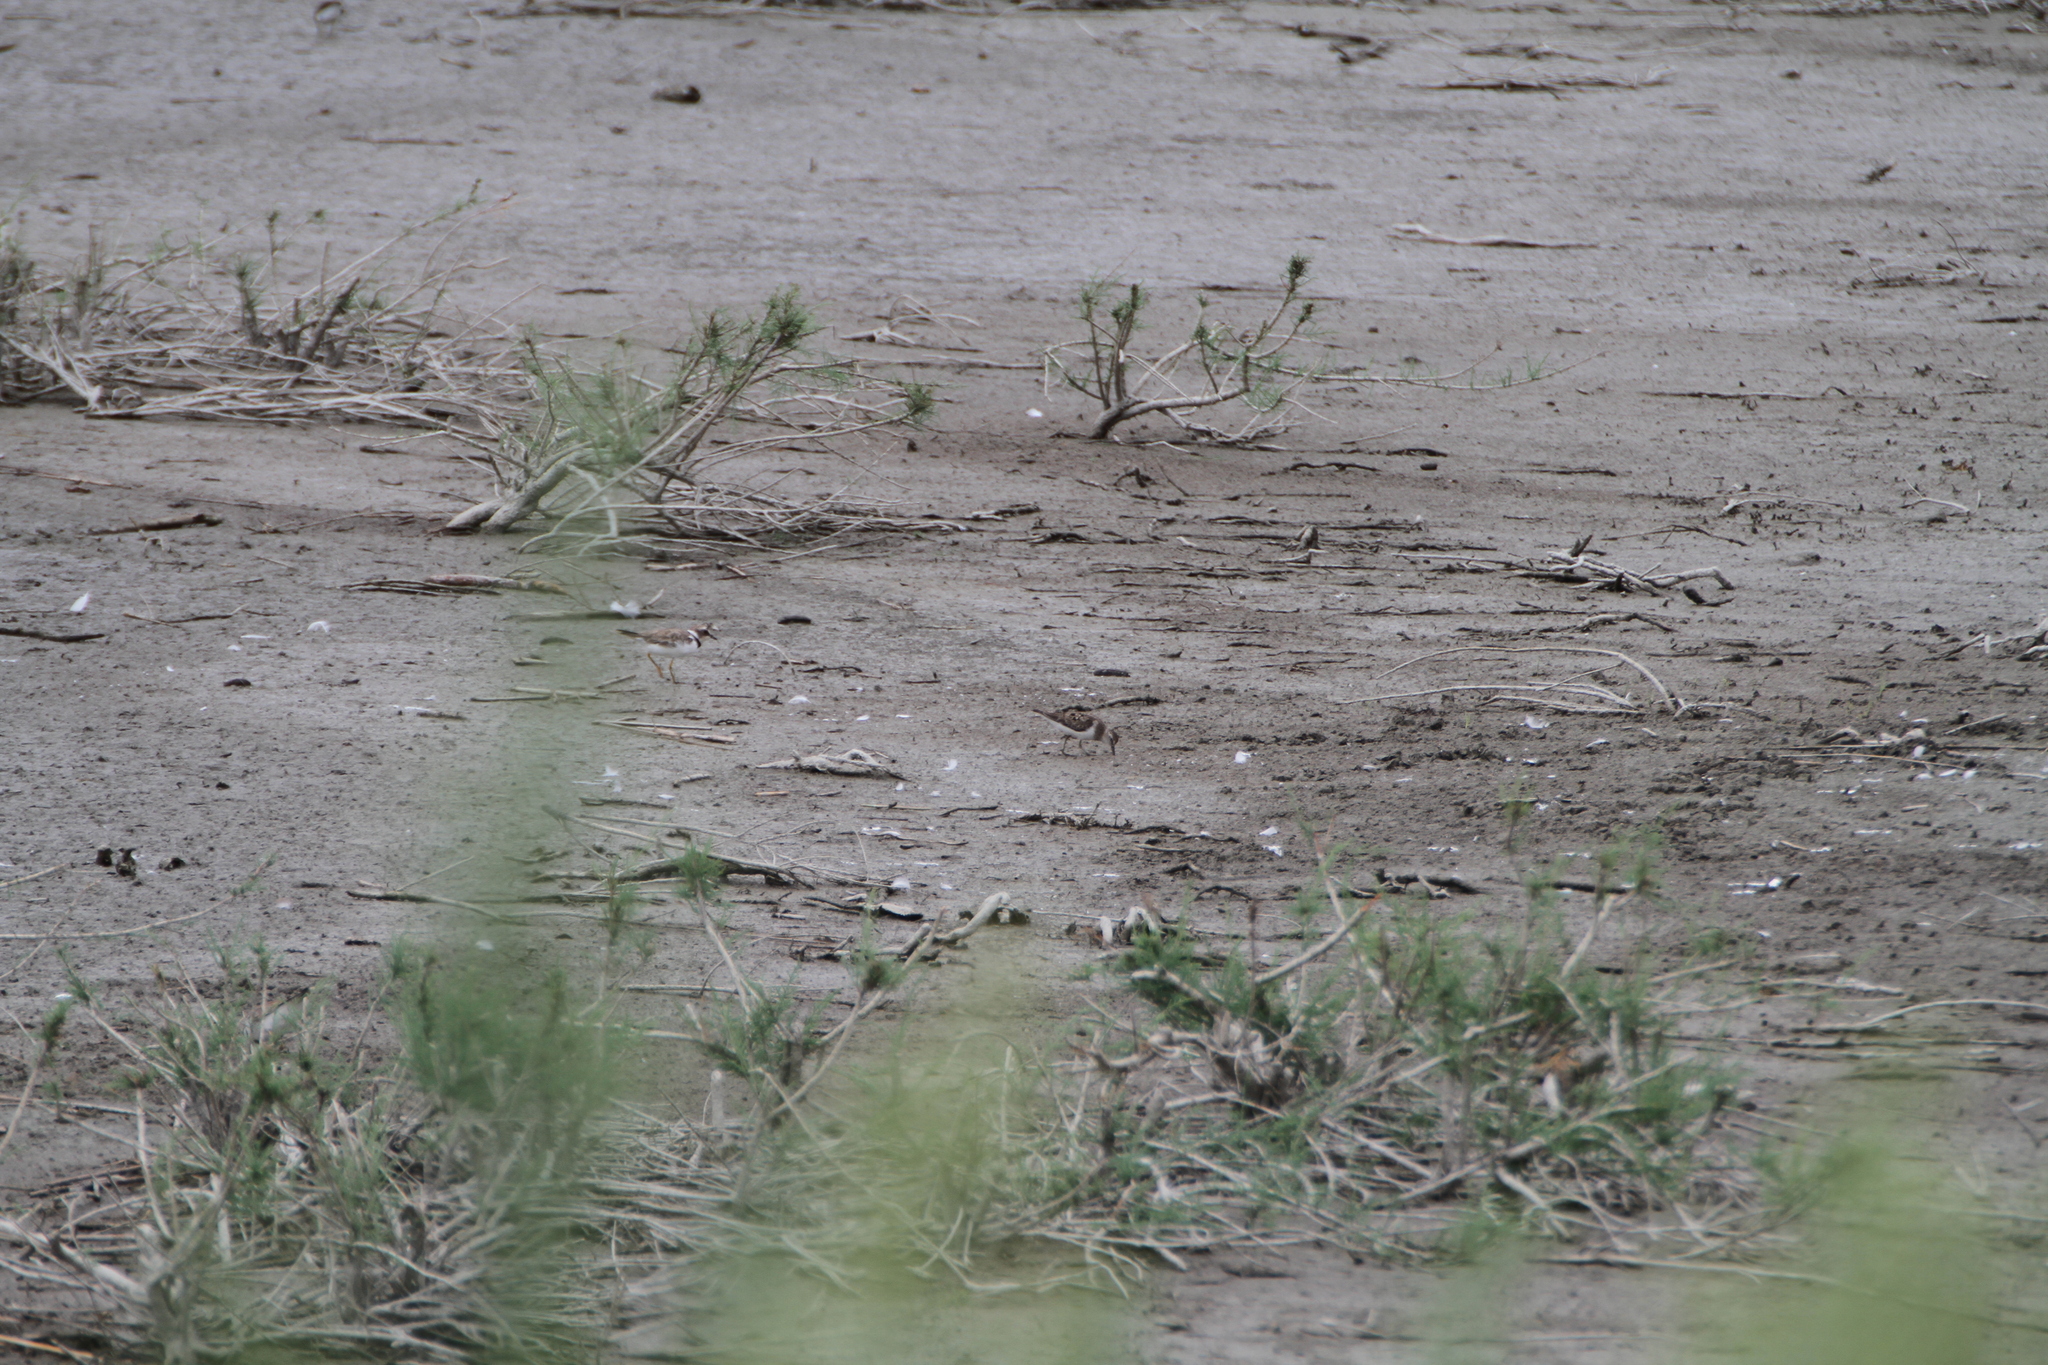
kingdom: Animalia
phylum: Chordata
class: Aves
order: Charadriiformes
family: Scolopacidae
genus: Calidris
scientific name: Calidris temminckii
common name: Temminck's stint
